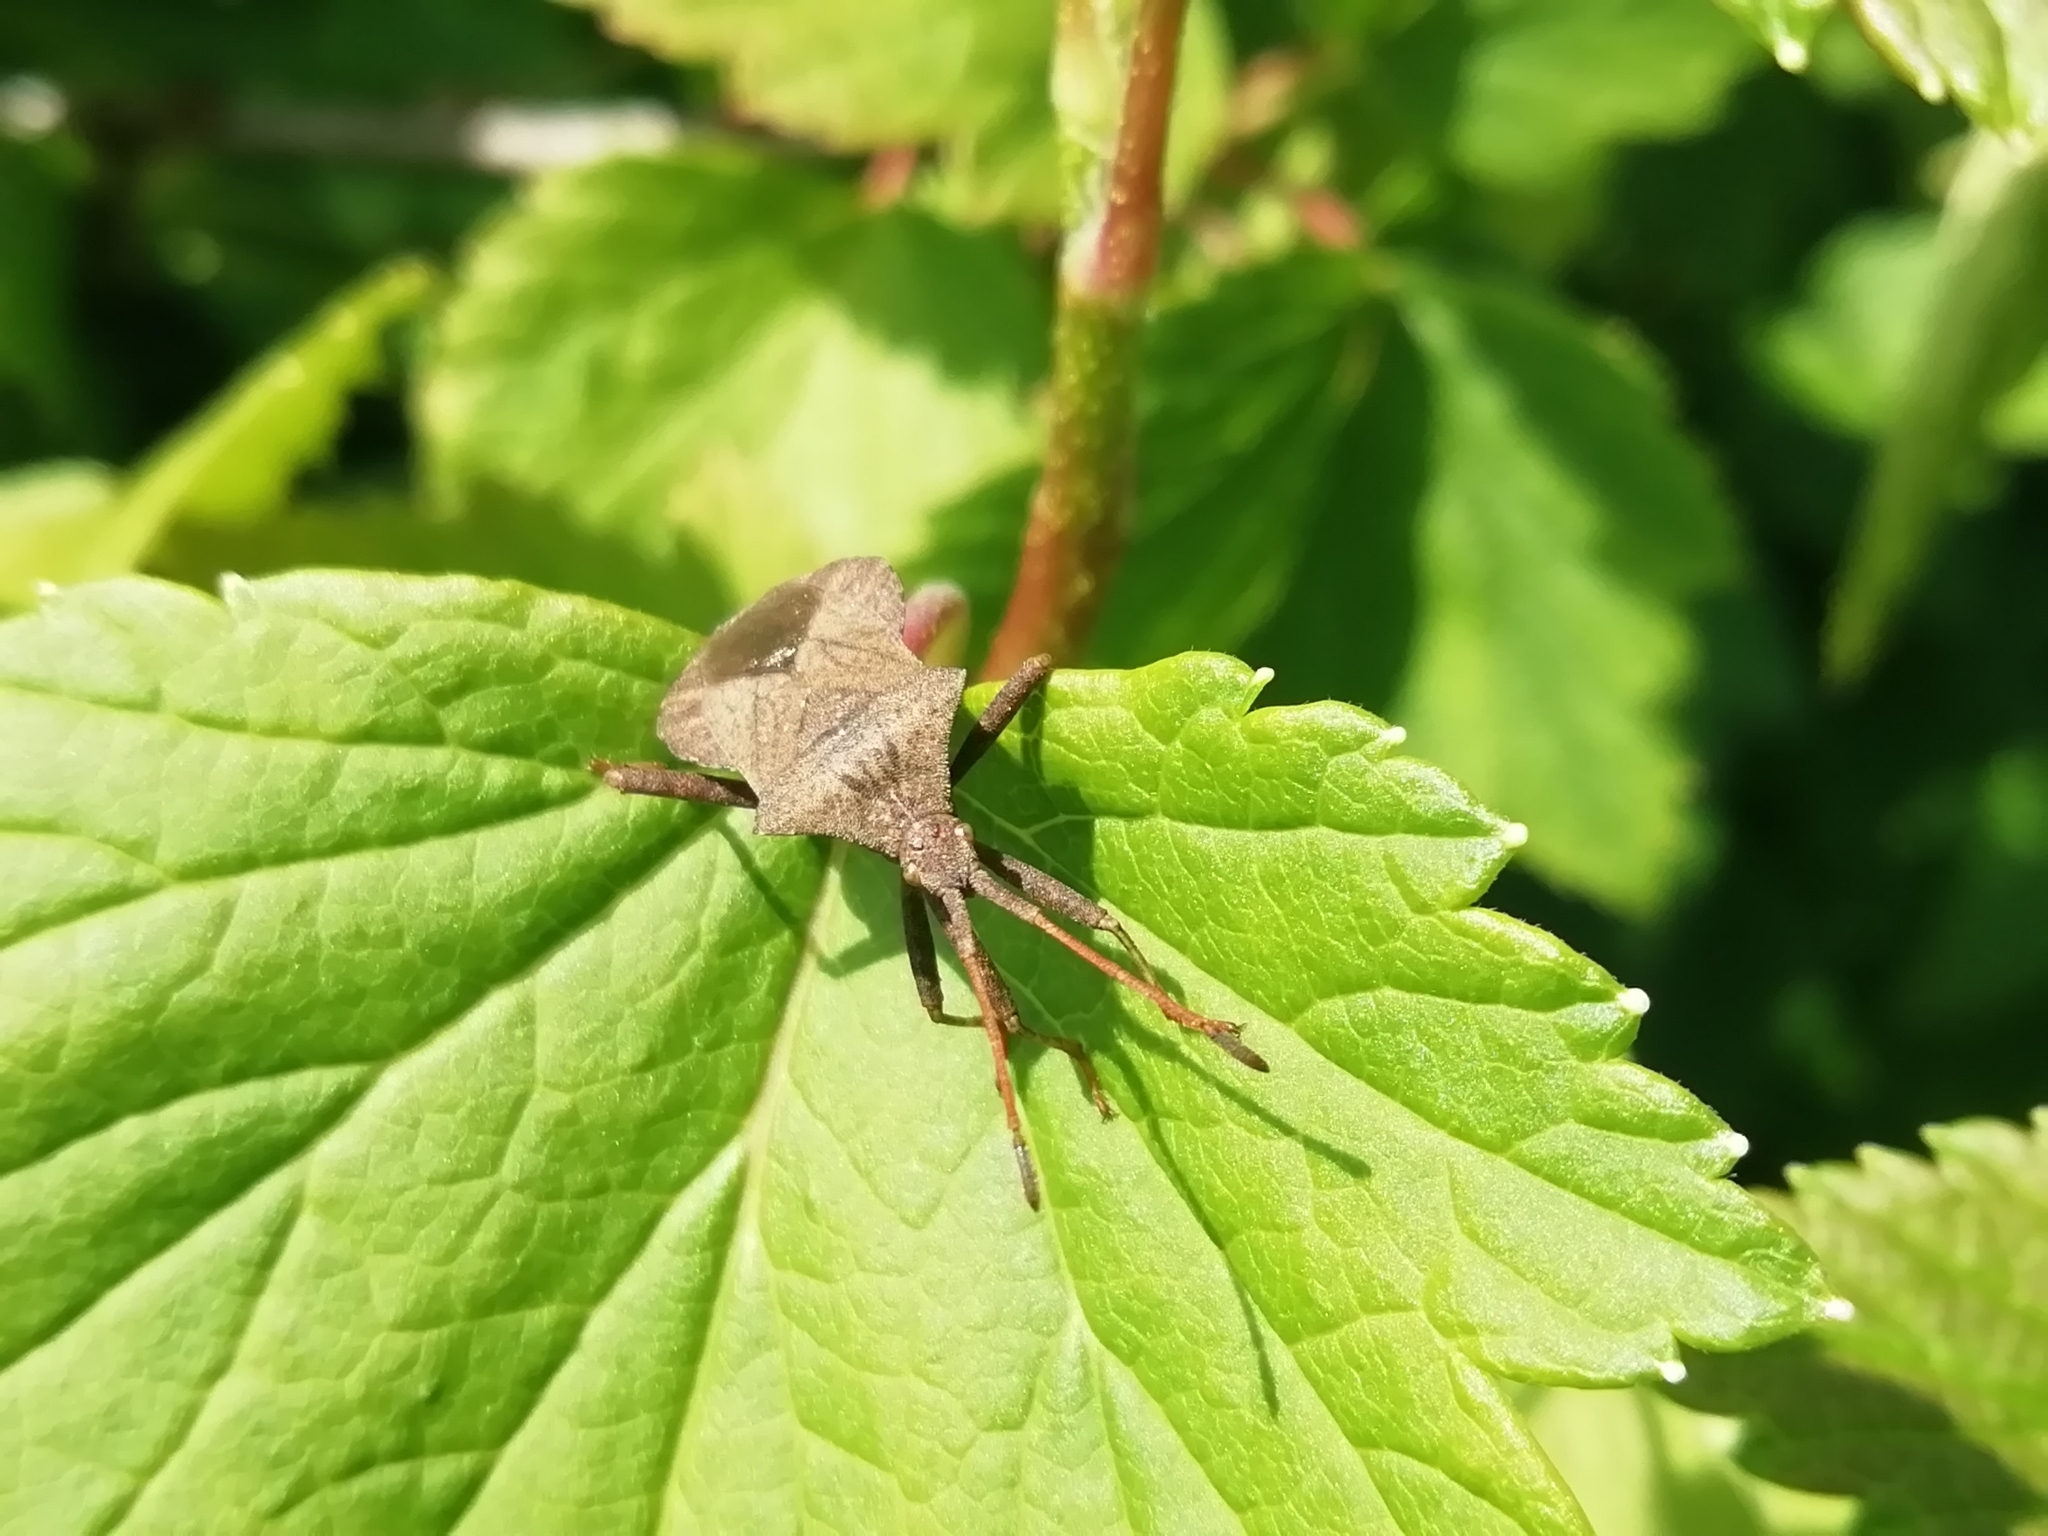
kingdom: Animalia
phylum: Arthropoda
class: Insecta
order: Hemiptera
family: Coreidae
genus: Coreus
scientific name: Coreus marginatus
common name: Dock bug
